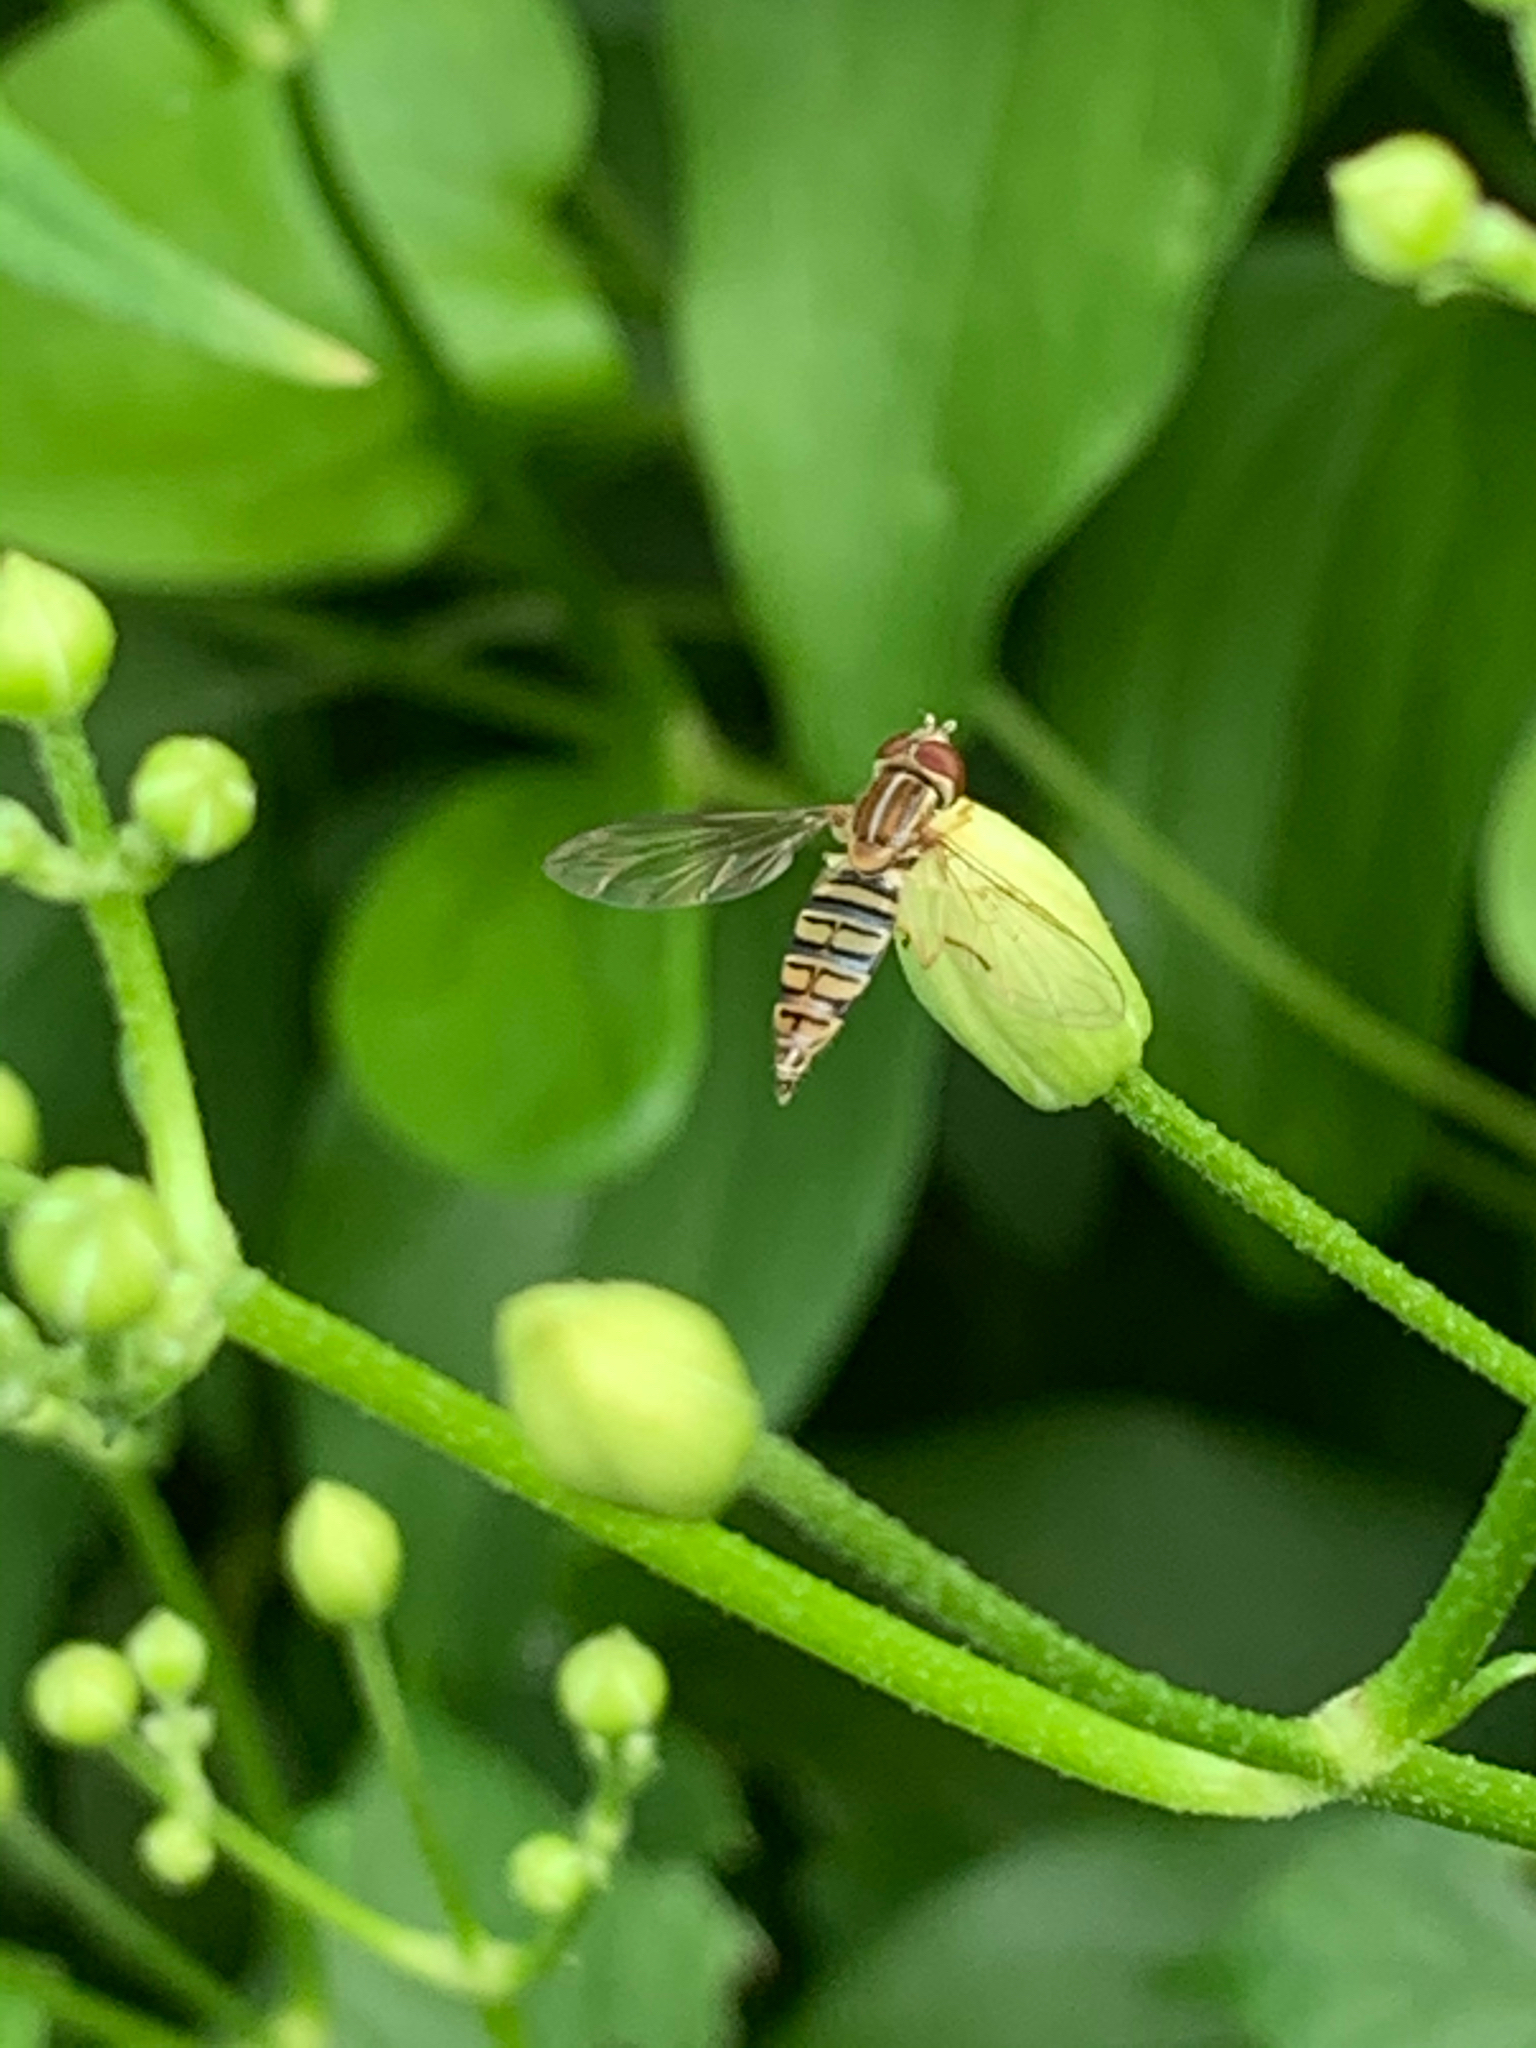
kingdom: Animalia
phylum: Arthropoda
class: Insecta
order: Diptera
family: Syrphidae
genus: Toxomerus
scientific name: Toxomerus politus
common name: Maize calligrapher
